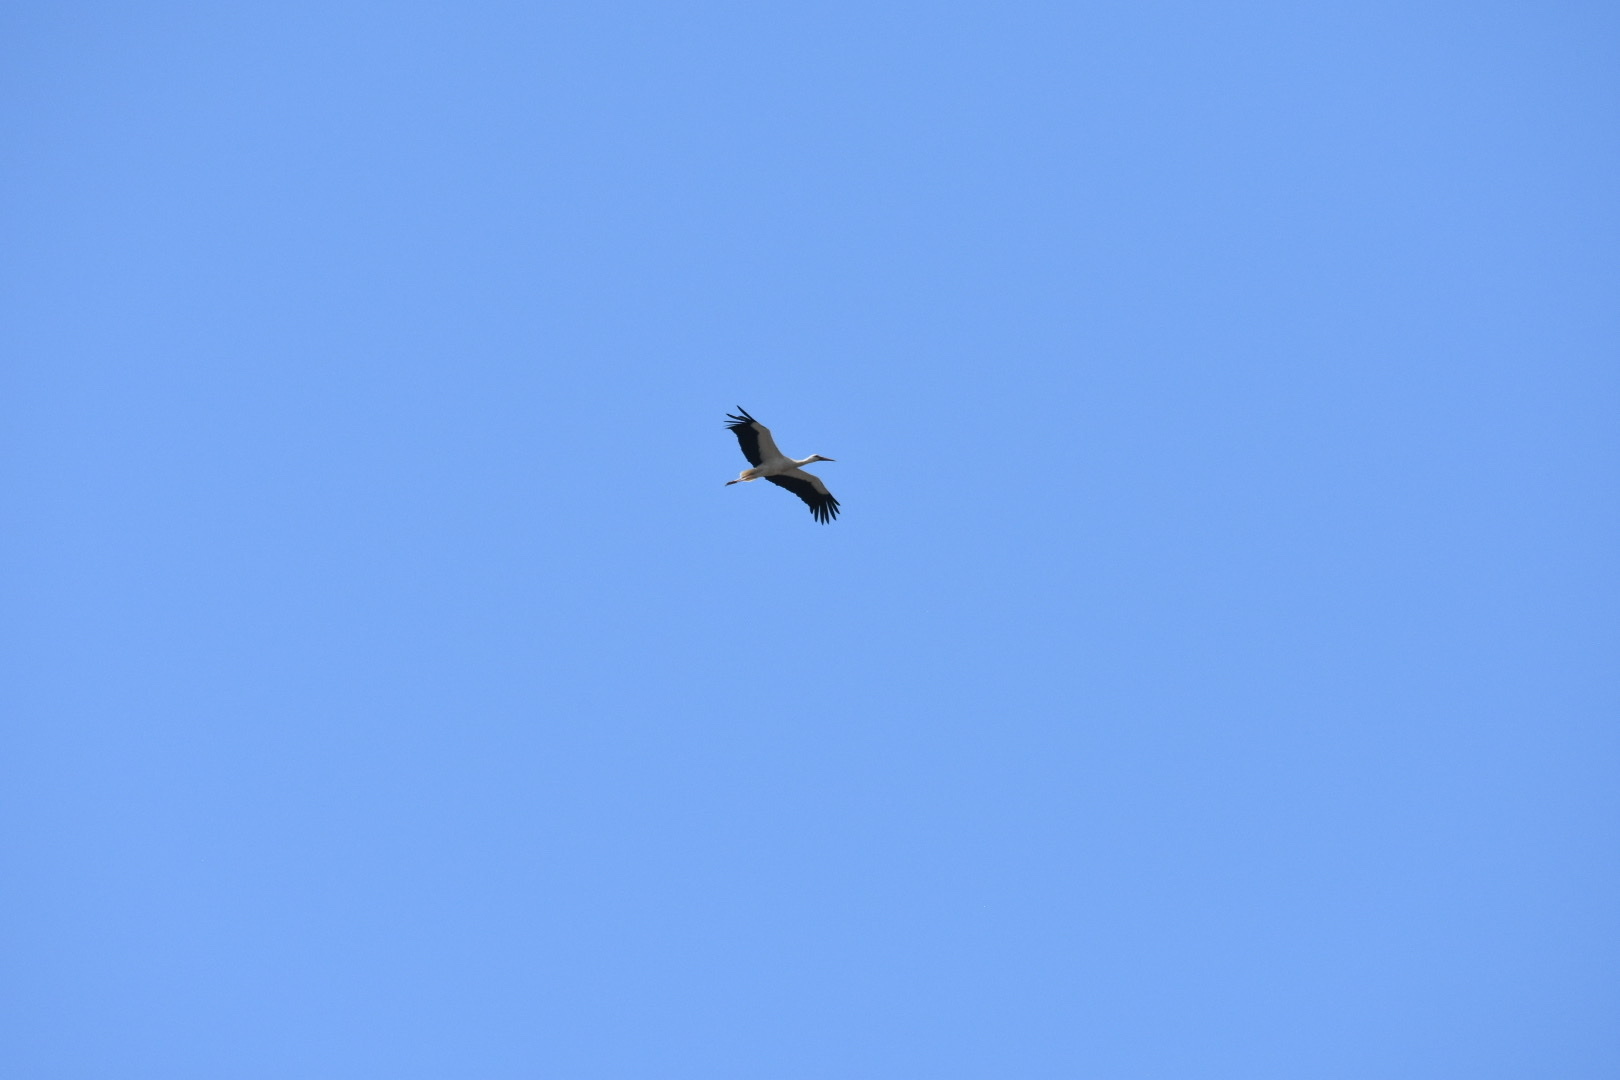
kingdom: Animalia
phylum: Chordata
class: Aves
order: Ciconiiformes
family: Ciconiidae
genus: Ciconia
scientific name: Ciconia ciconia
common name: White stork
